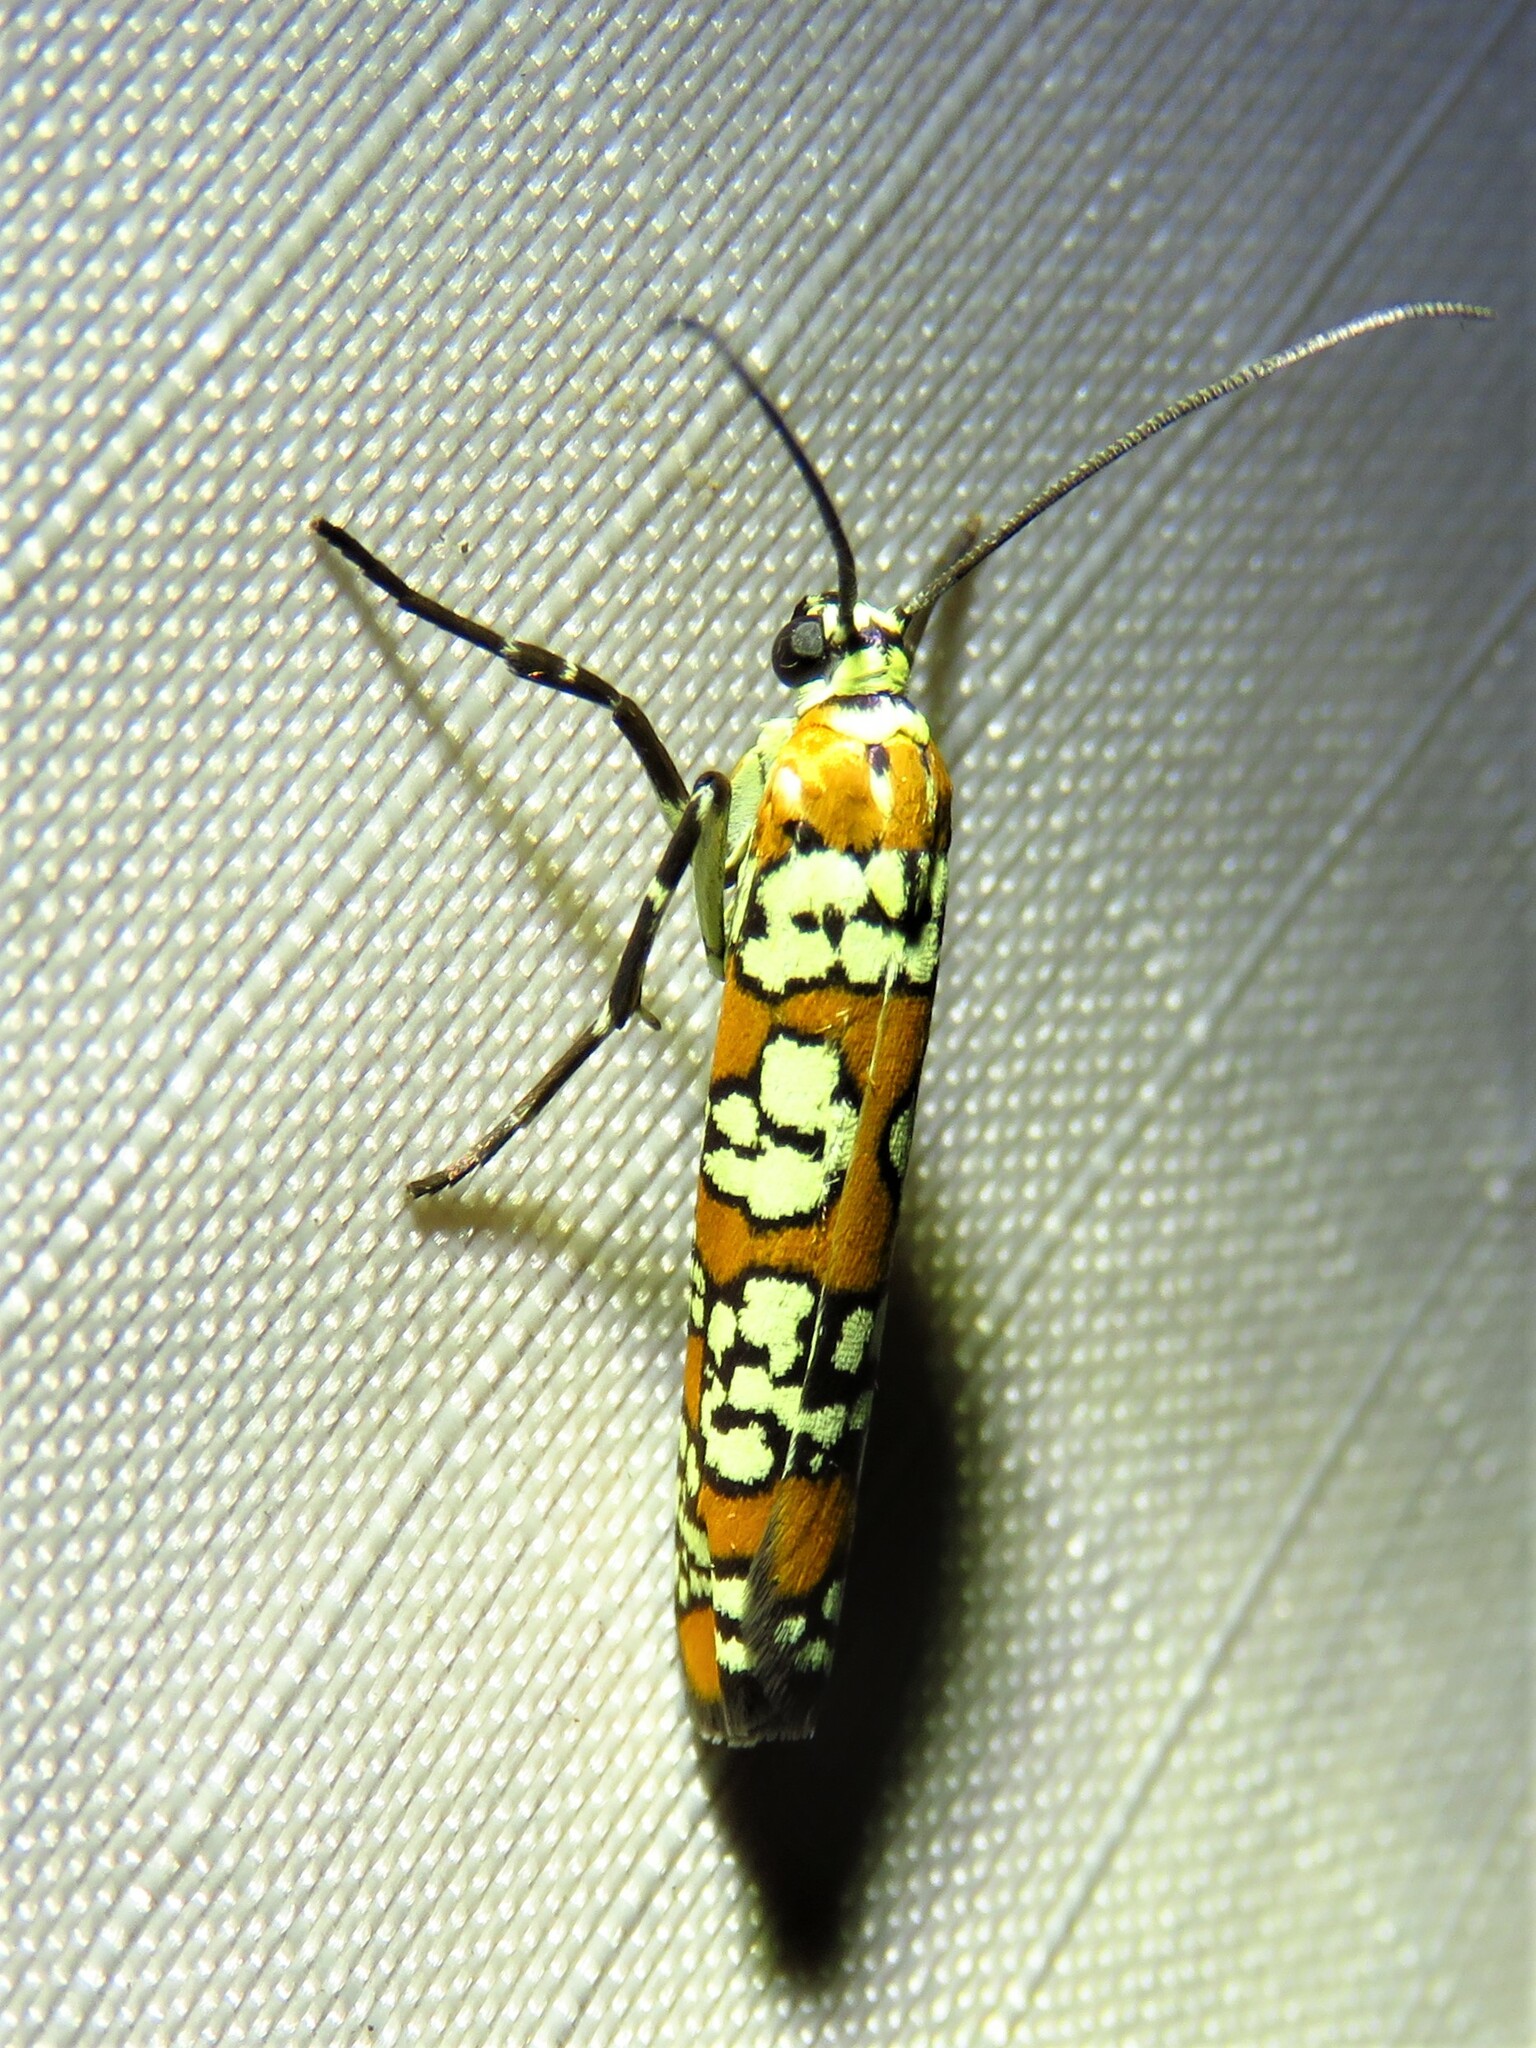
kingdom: Animalia
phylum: Arthropoda
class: Insecta
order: Lepidoptera
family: Attevidae
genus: Atteva
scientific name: Atteva punctella
